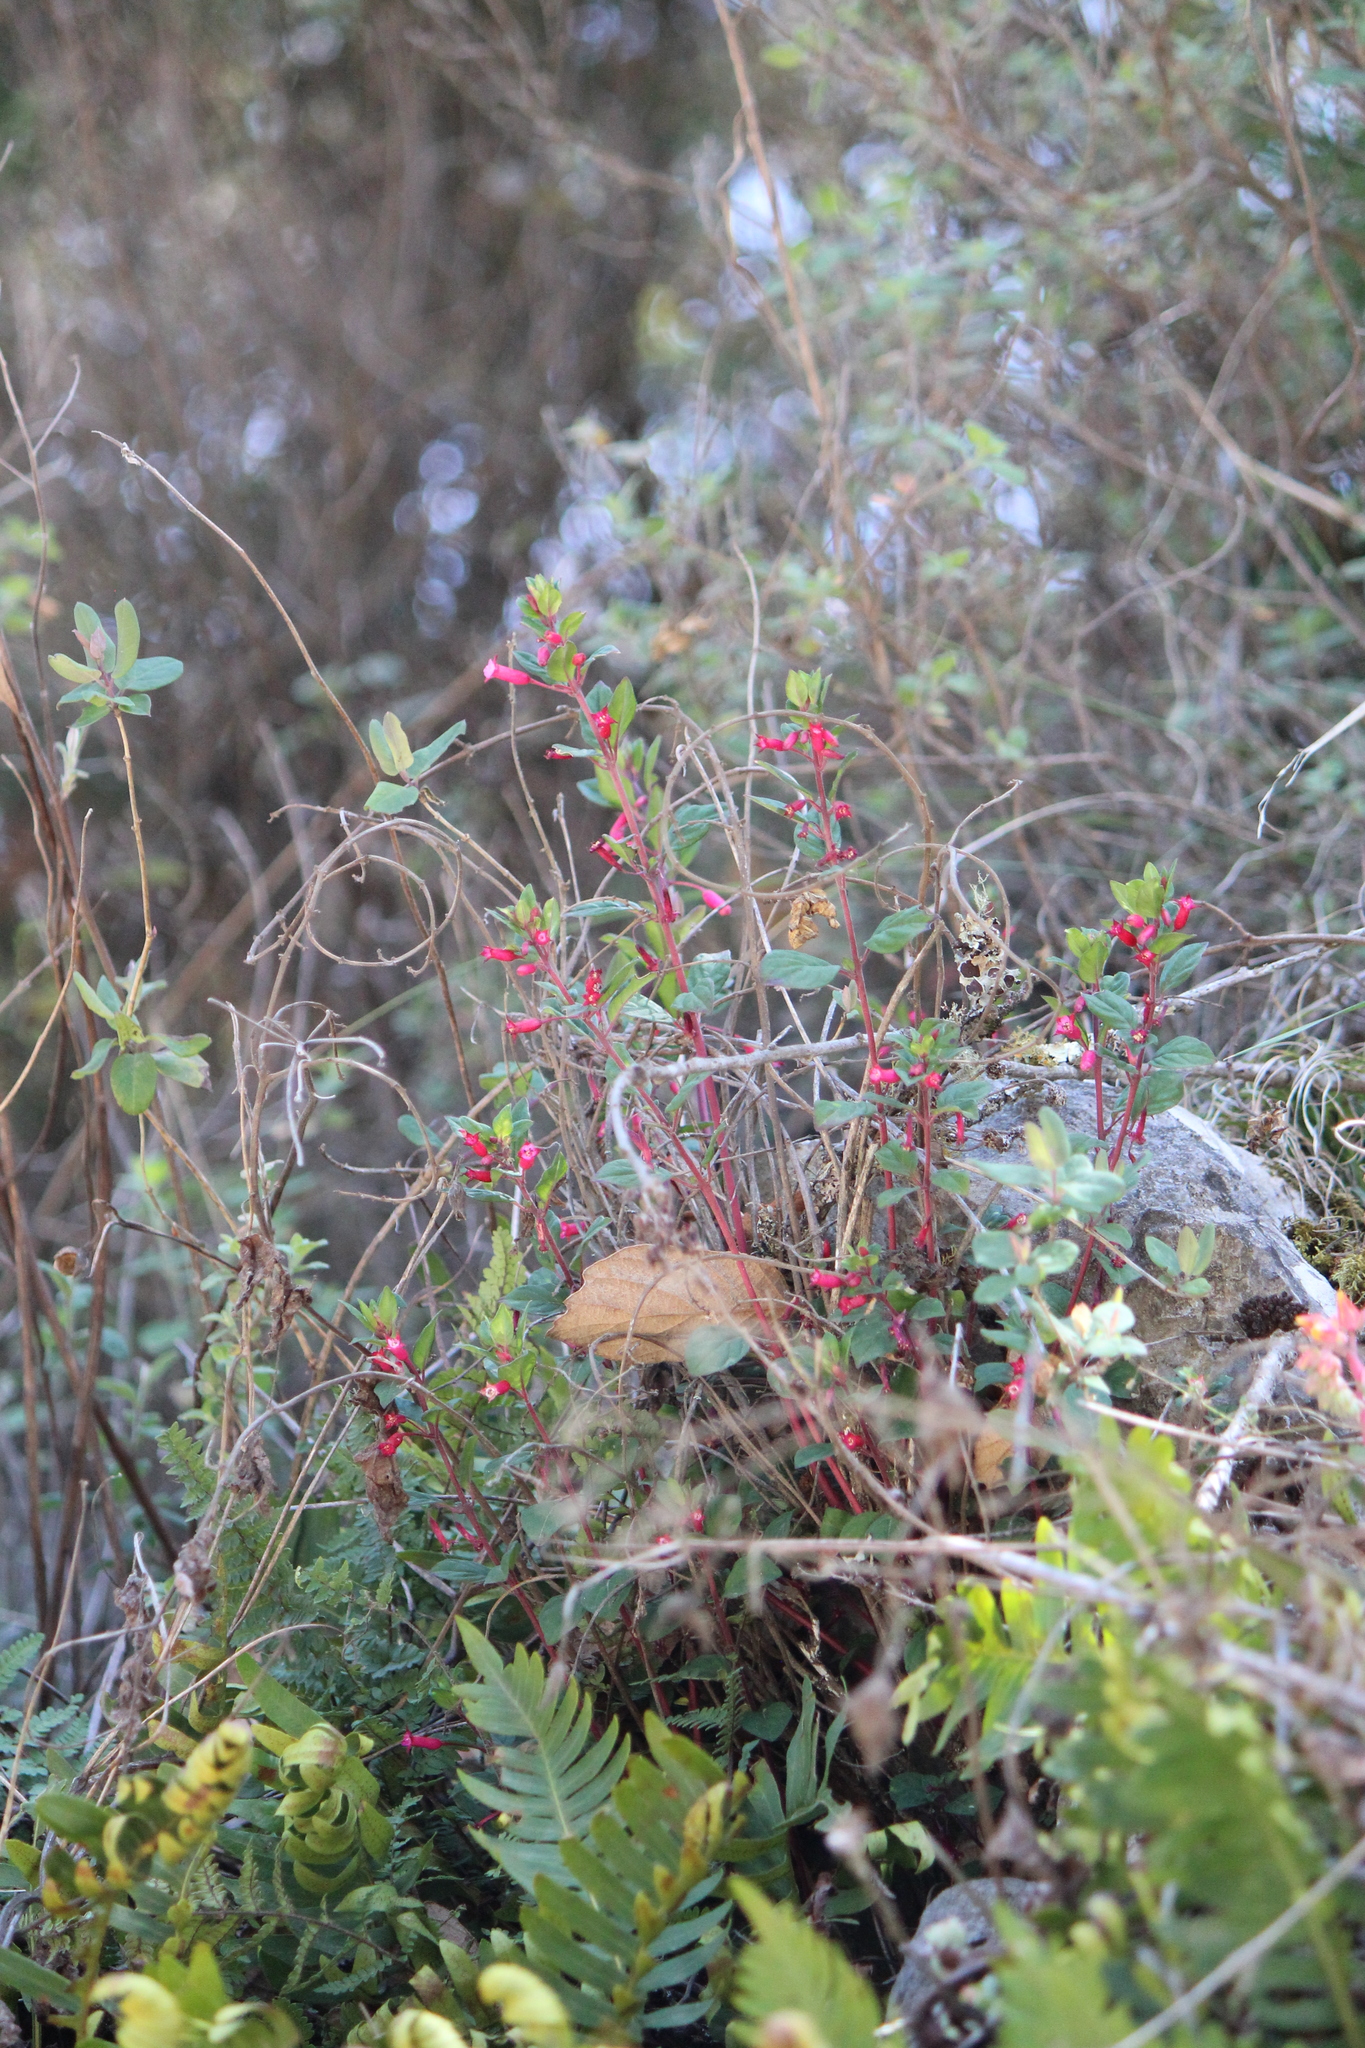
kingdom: Plantae
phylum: Tracheophyta
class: Magnoliopsida
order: Myrtales
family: Onagraceae
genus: Fuchsia
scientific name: Fuchsia ravenii
